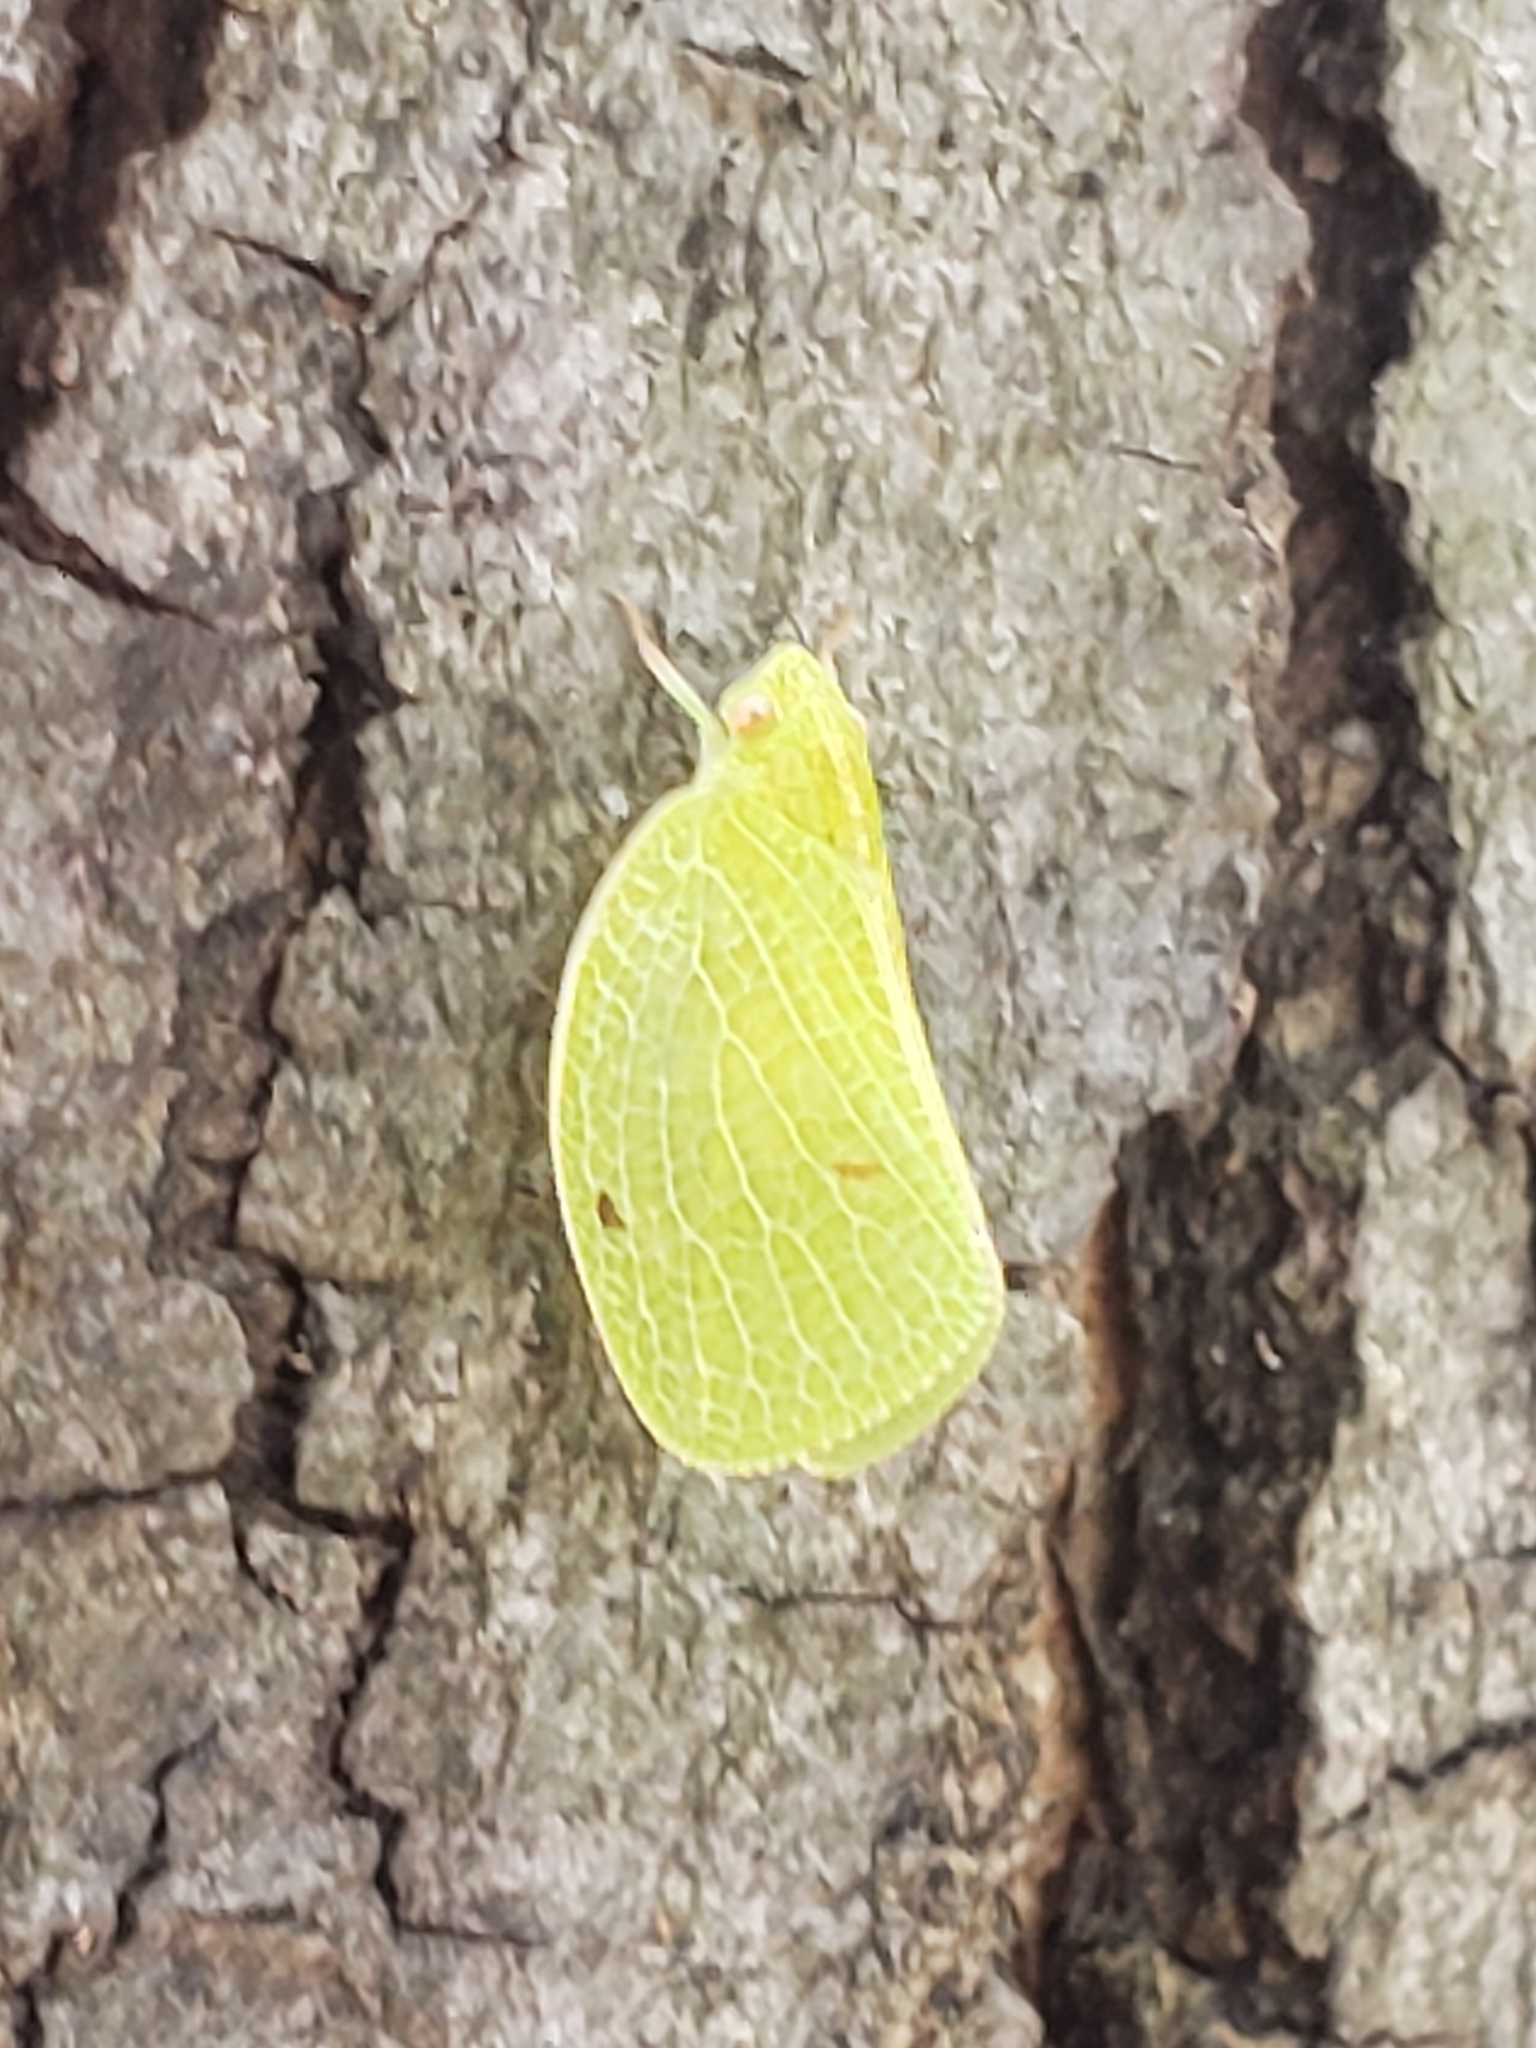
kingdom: Animalia
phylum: Arthropoda
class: Insecta
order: Hemiptera
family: Acanaloniidae
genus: Acanalonia
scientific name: Acanalonia conica
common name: Green cone-headed planthopper
